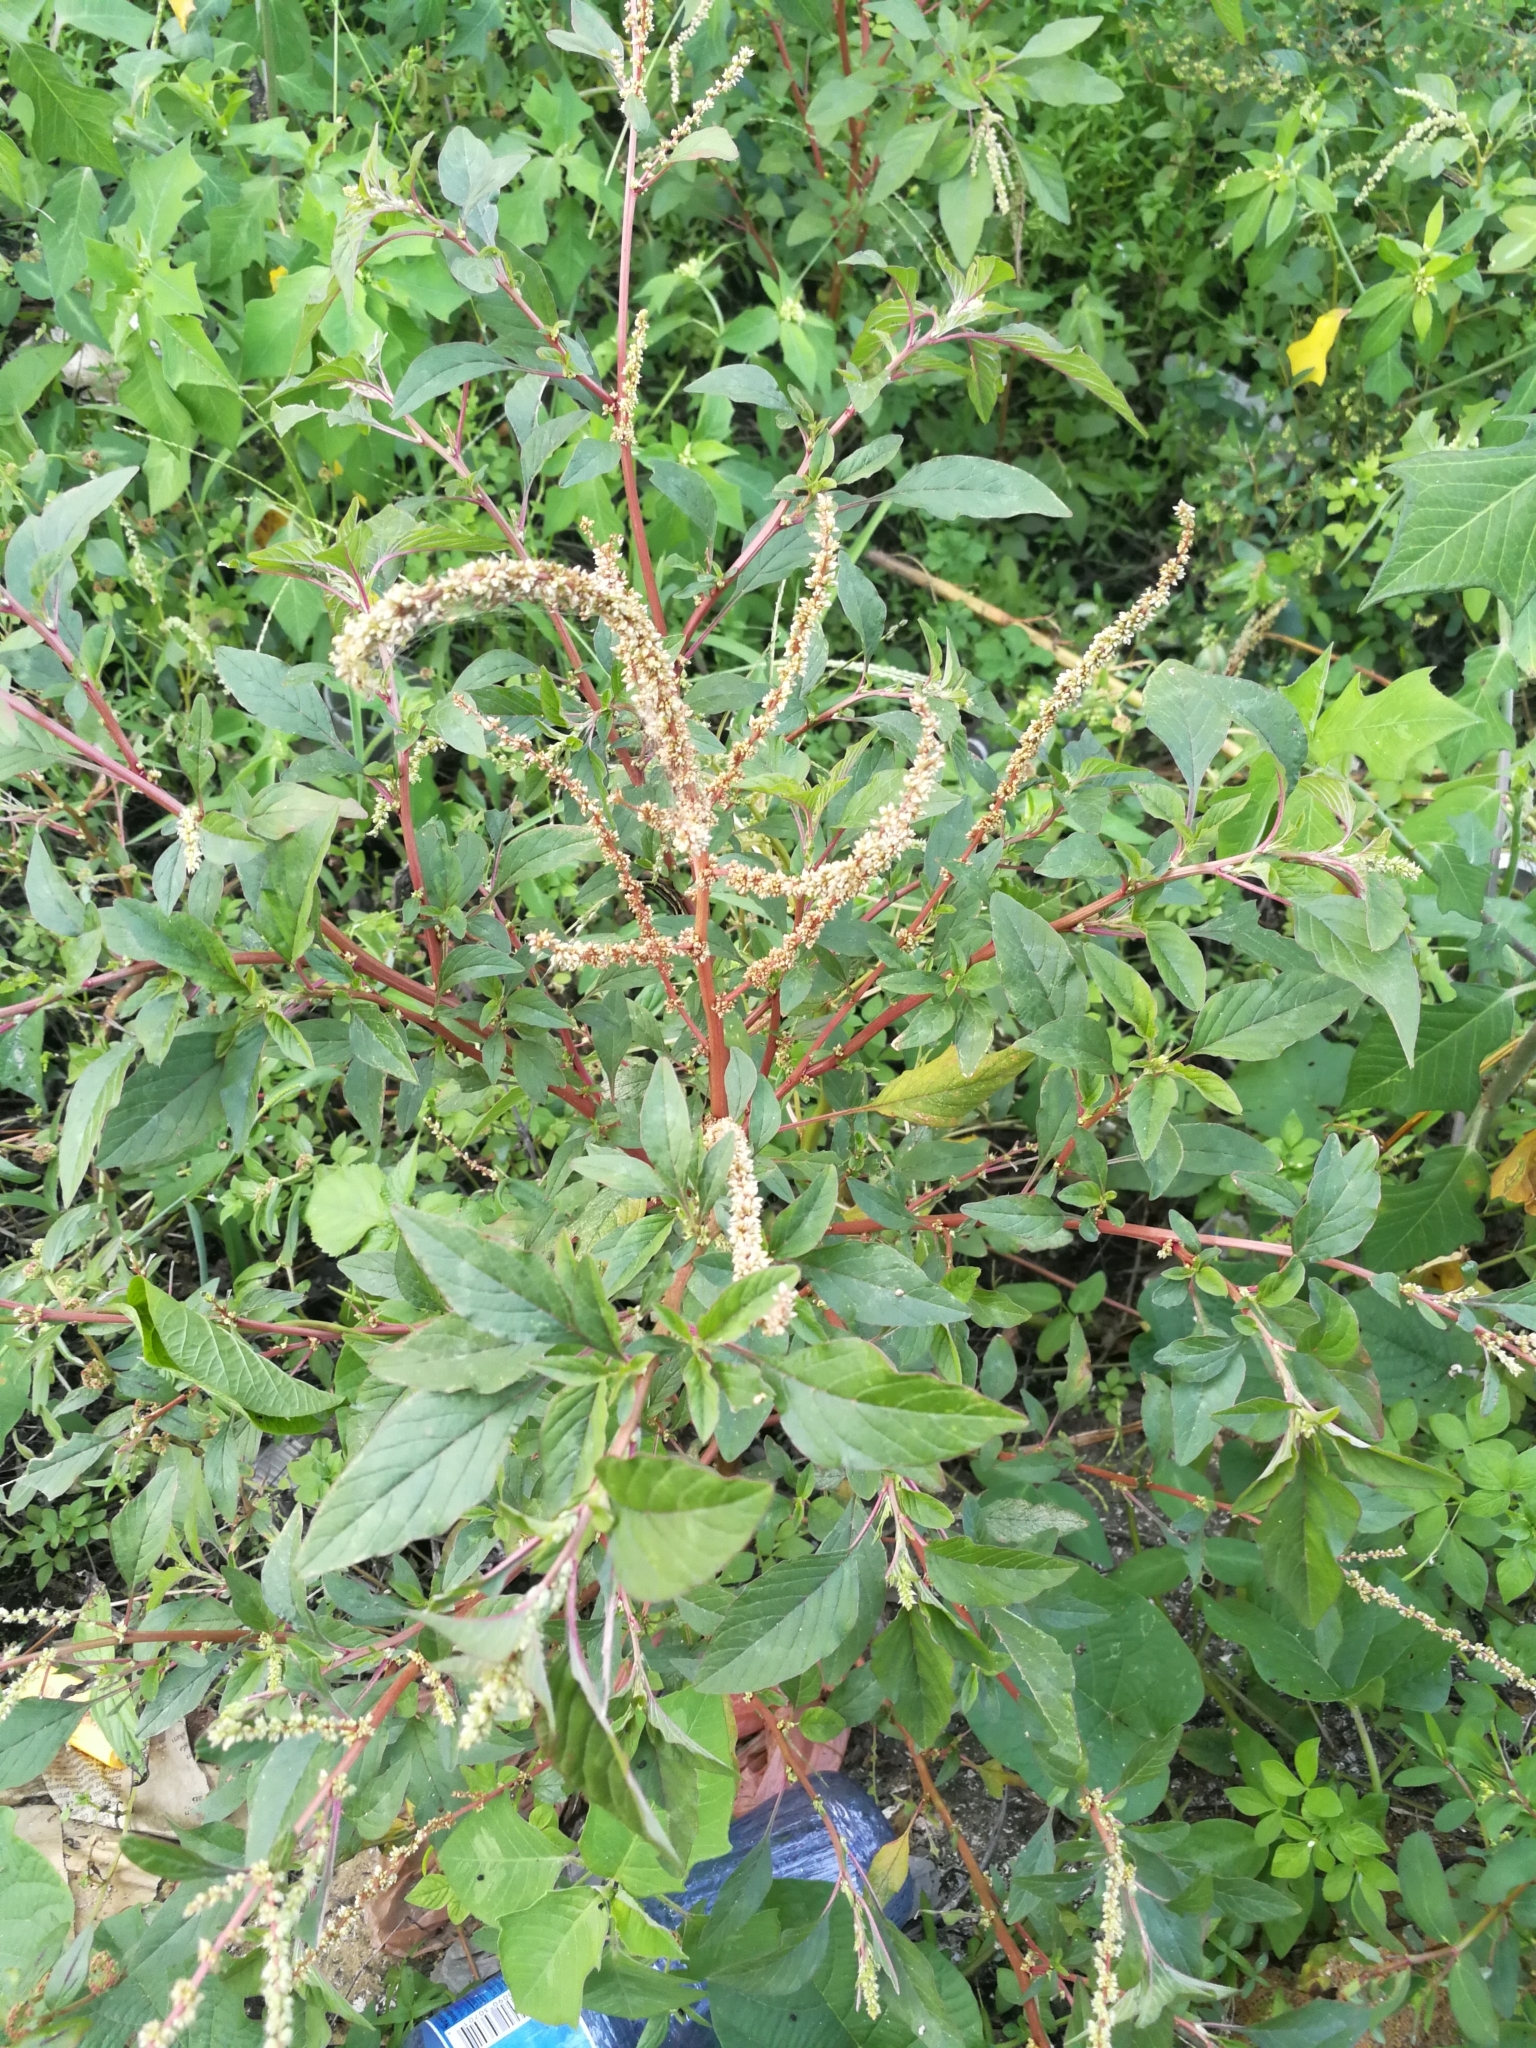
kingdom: Plantae
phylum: Tracheophyta
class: Magnoliopsida
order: Caryophyllales
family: Amaranthaceae
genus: Amaranthus
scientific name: Amaranthus blitum
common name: Purple amaranth
